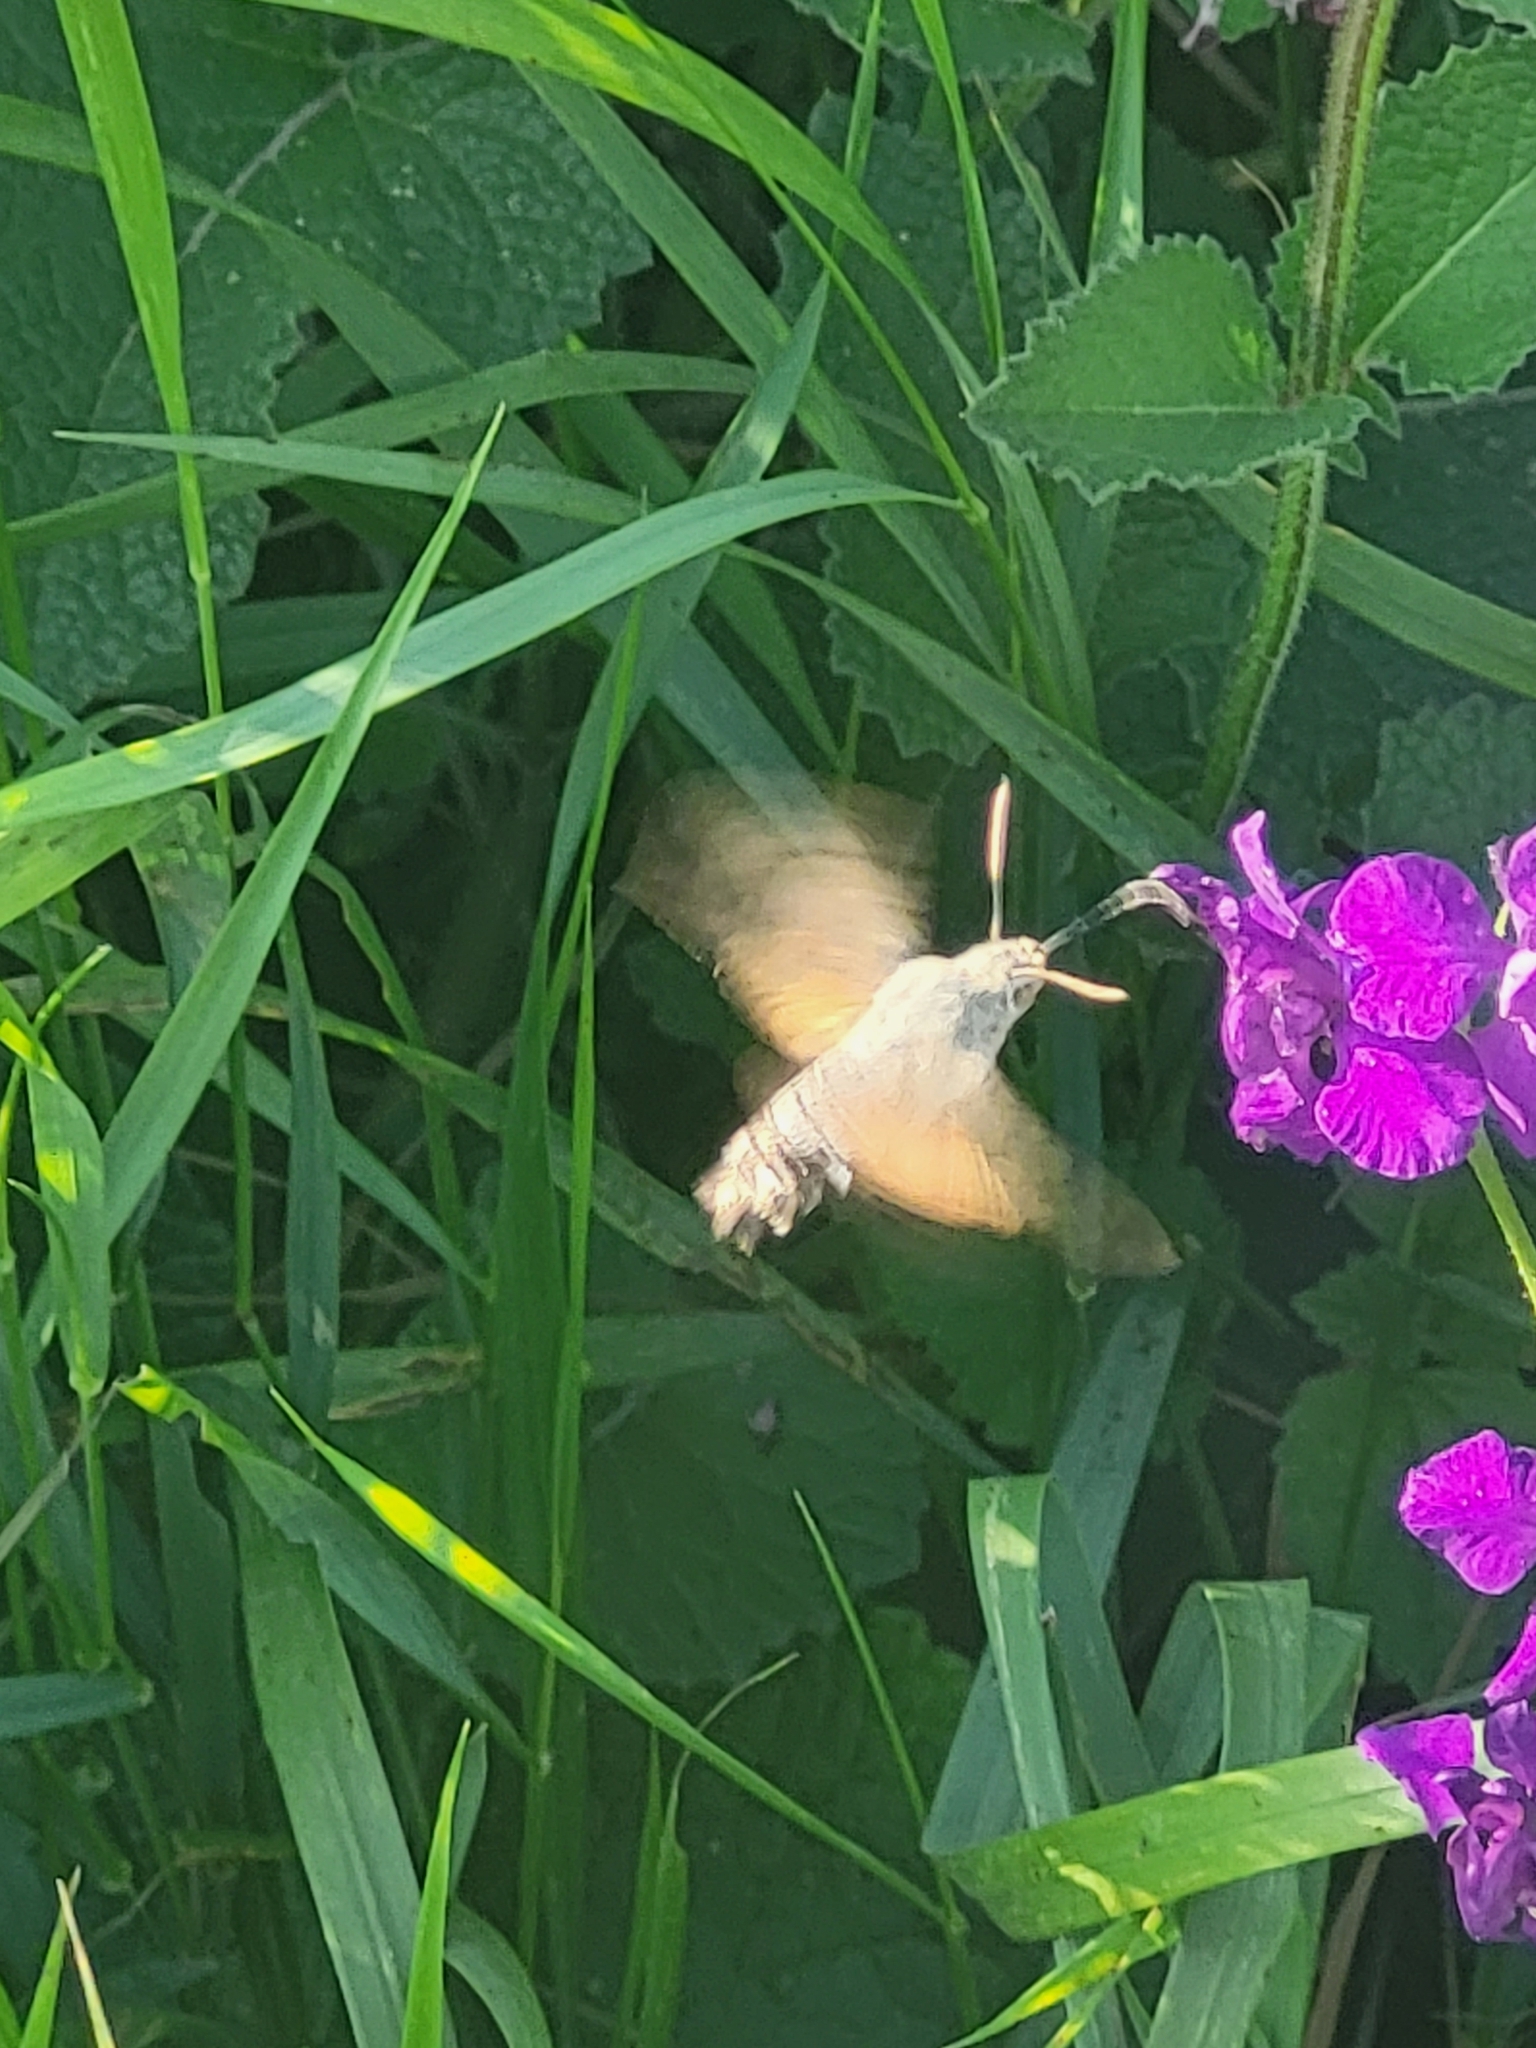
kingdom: Animalia
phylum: Arthropoda
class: Insecta
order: Lepidoptera
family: Sphingidae
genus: Macroglossum
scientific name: Macroglossum stellatarum
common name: Humming-bird hawk-moth
